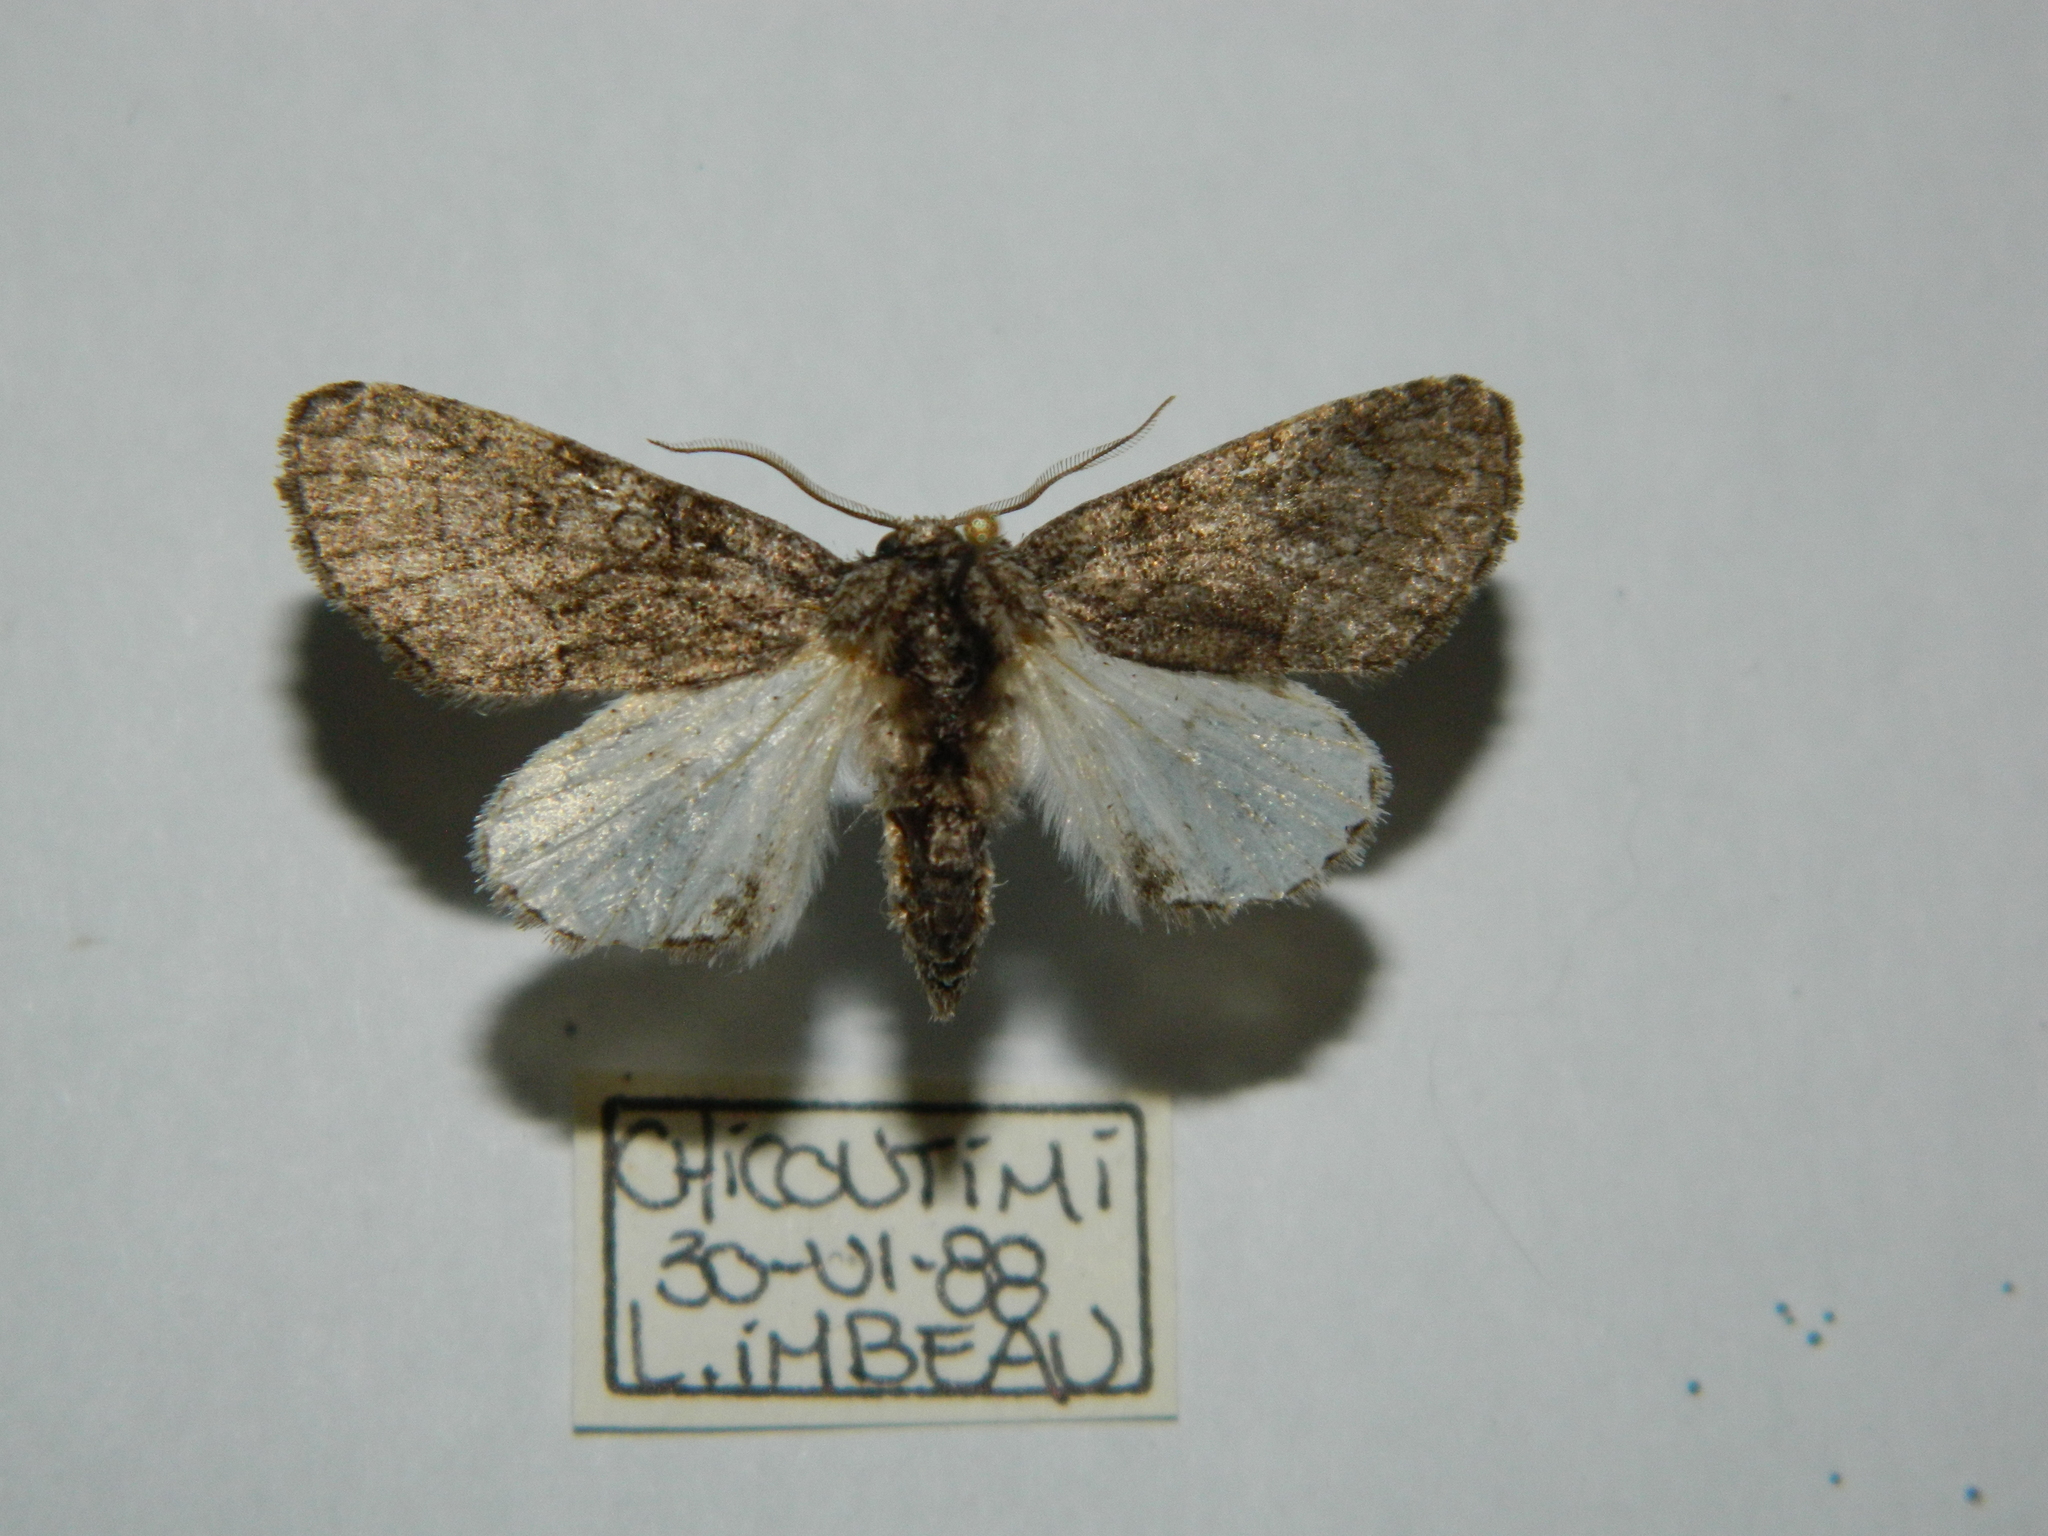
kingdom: Animalia
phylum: Arthropoda
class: Insecta
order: Lepidoptera
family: Noctuidae
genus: Raphia
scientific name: Raphia frater
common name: Brother
